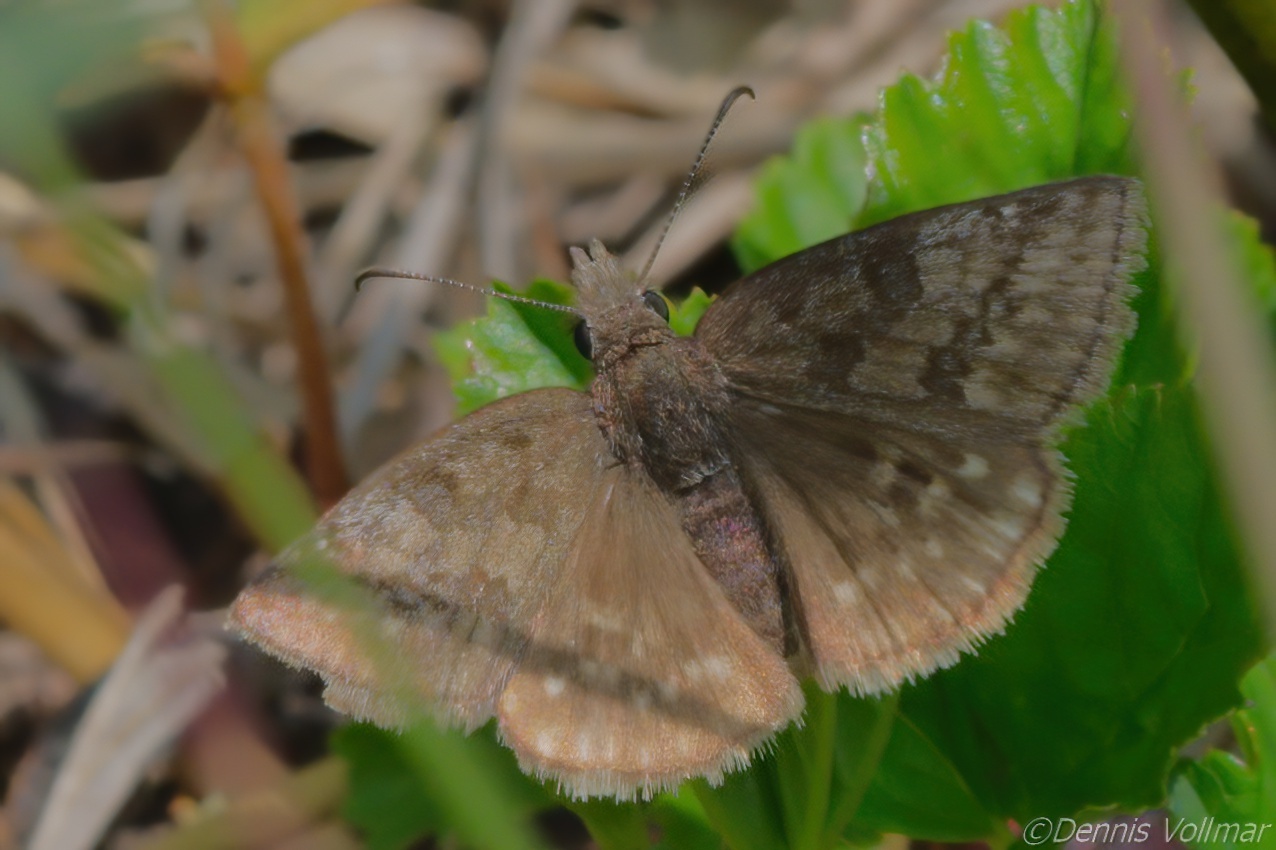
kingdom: Animalia
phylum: Arthropoda
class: Insecta
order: Lepidoptera
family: Hesperiidae
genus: Erynnis
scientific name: Erynnis icelus
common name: Dreamy duskywing
